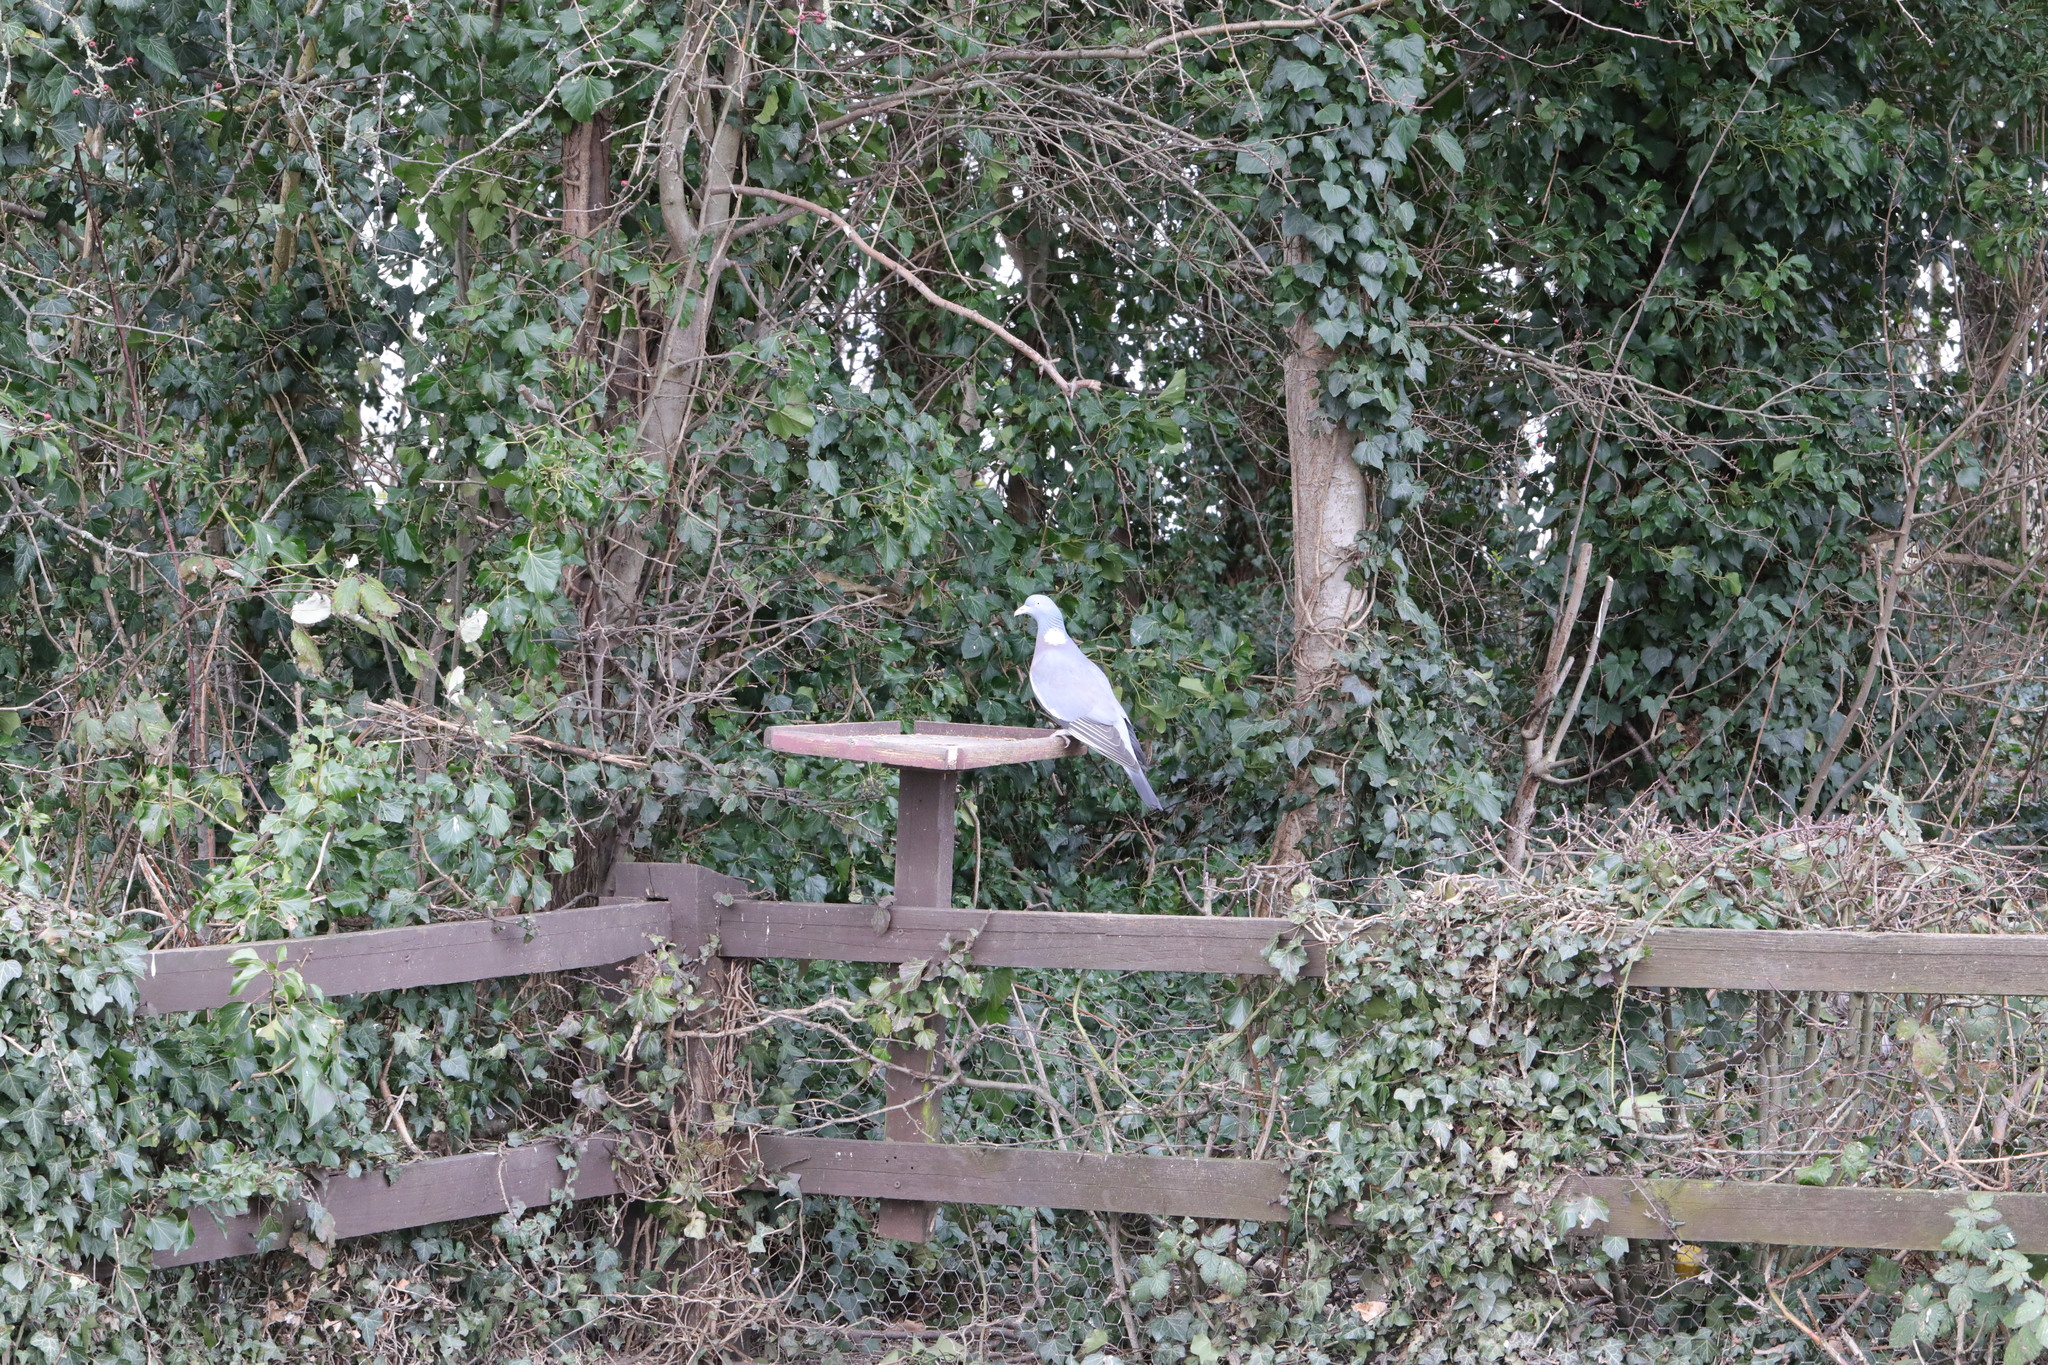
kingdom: Animalia
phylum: Chordata
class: Aves
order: Columbiformes
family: Columbidae
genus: Columba
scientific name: Columba palumbus
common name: Common wood pigeon
